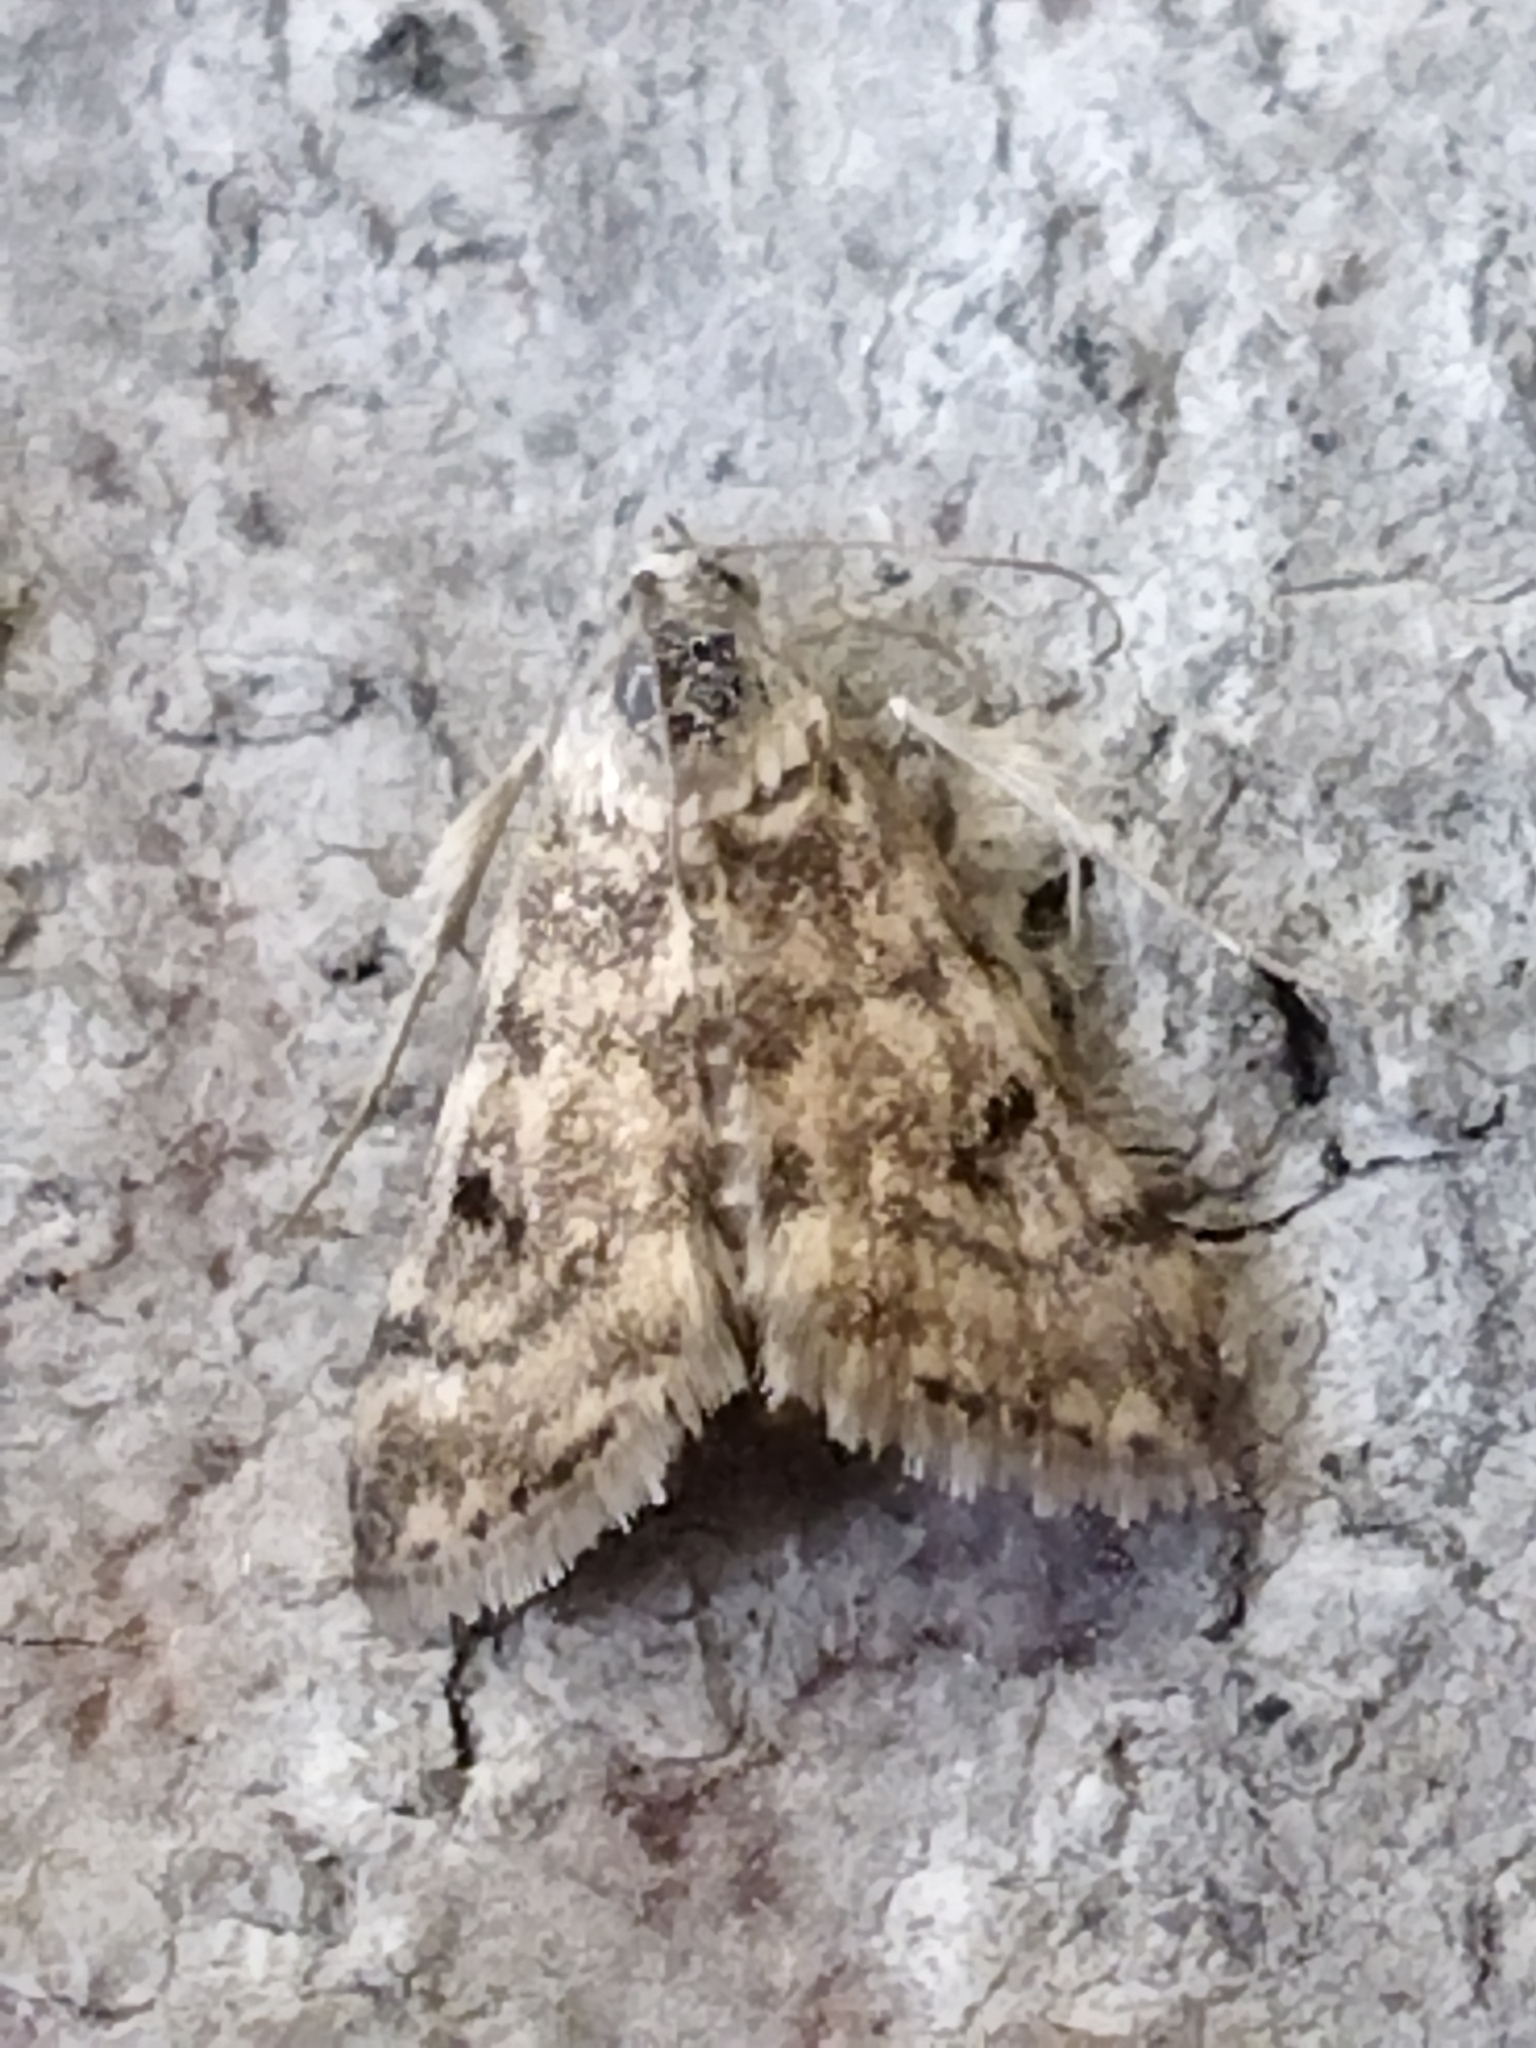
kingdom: Animalia
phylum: Arthropoda
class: Insecta
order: Lepidoptera
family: Crambidae
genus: Noctuelia
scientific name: Noctuelia Aporodes floralis
